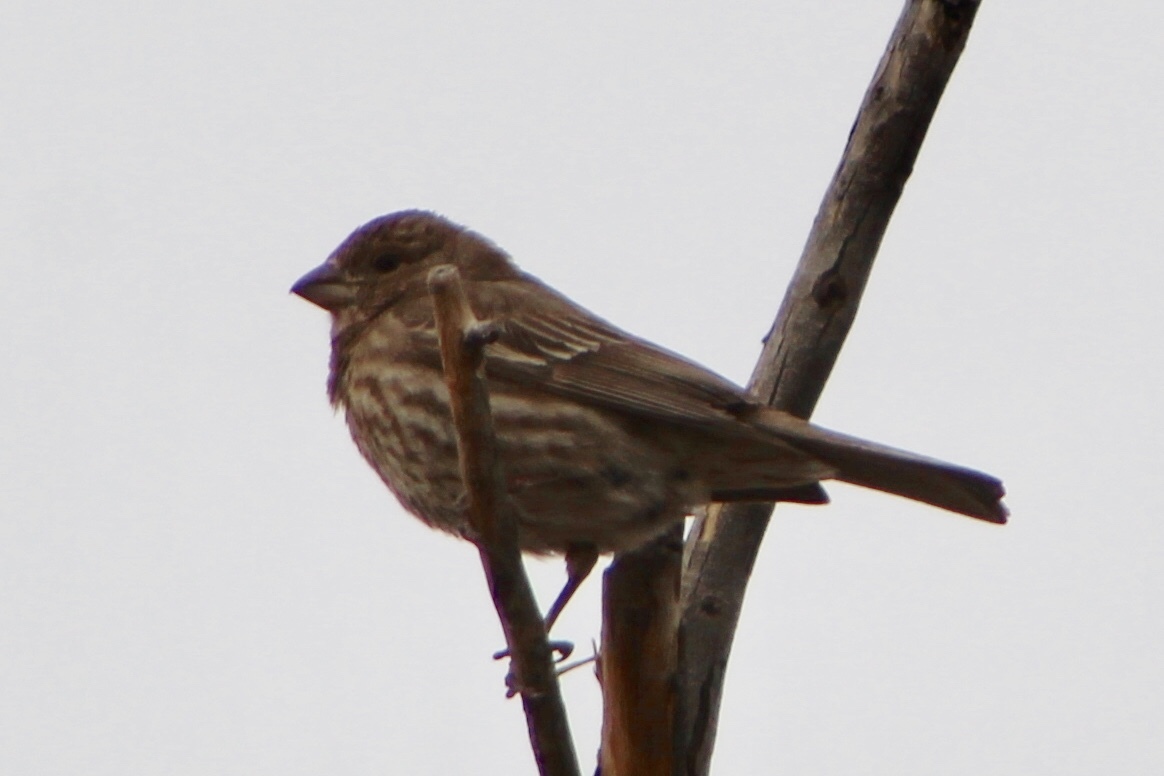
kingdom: Animalia
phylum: Chordata
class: Aves
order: Passeriformes
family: Fringillidae
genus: Haemorhous
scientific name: Haemorhous mexicanus
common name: House finch
